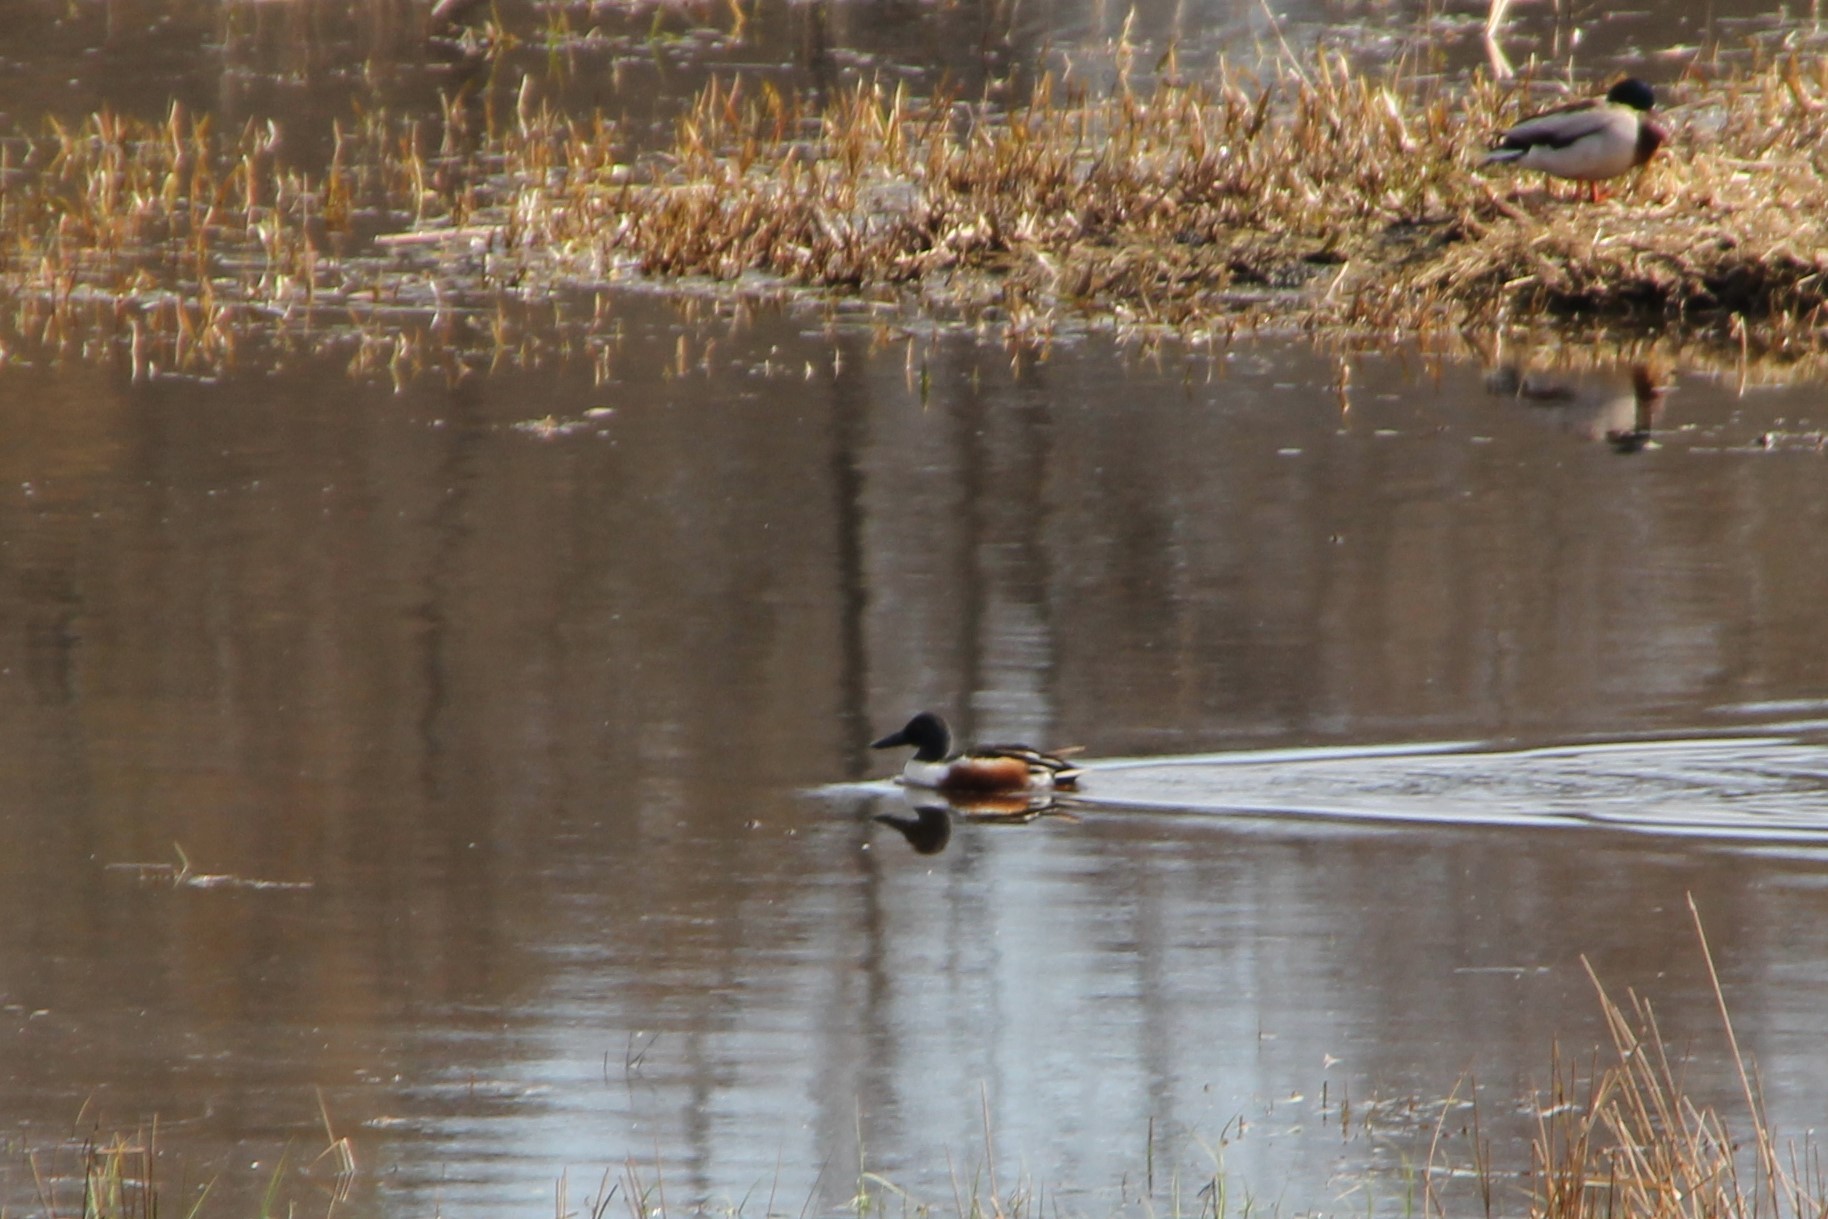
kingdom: Animalia
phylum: Chordata
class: Aves
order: Anseriformes
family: Anatidae
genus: Spatula
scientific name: Spatula clypeata
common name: Northern shoveler
